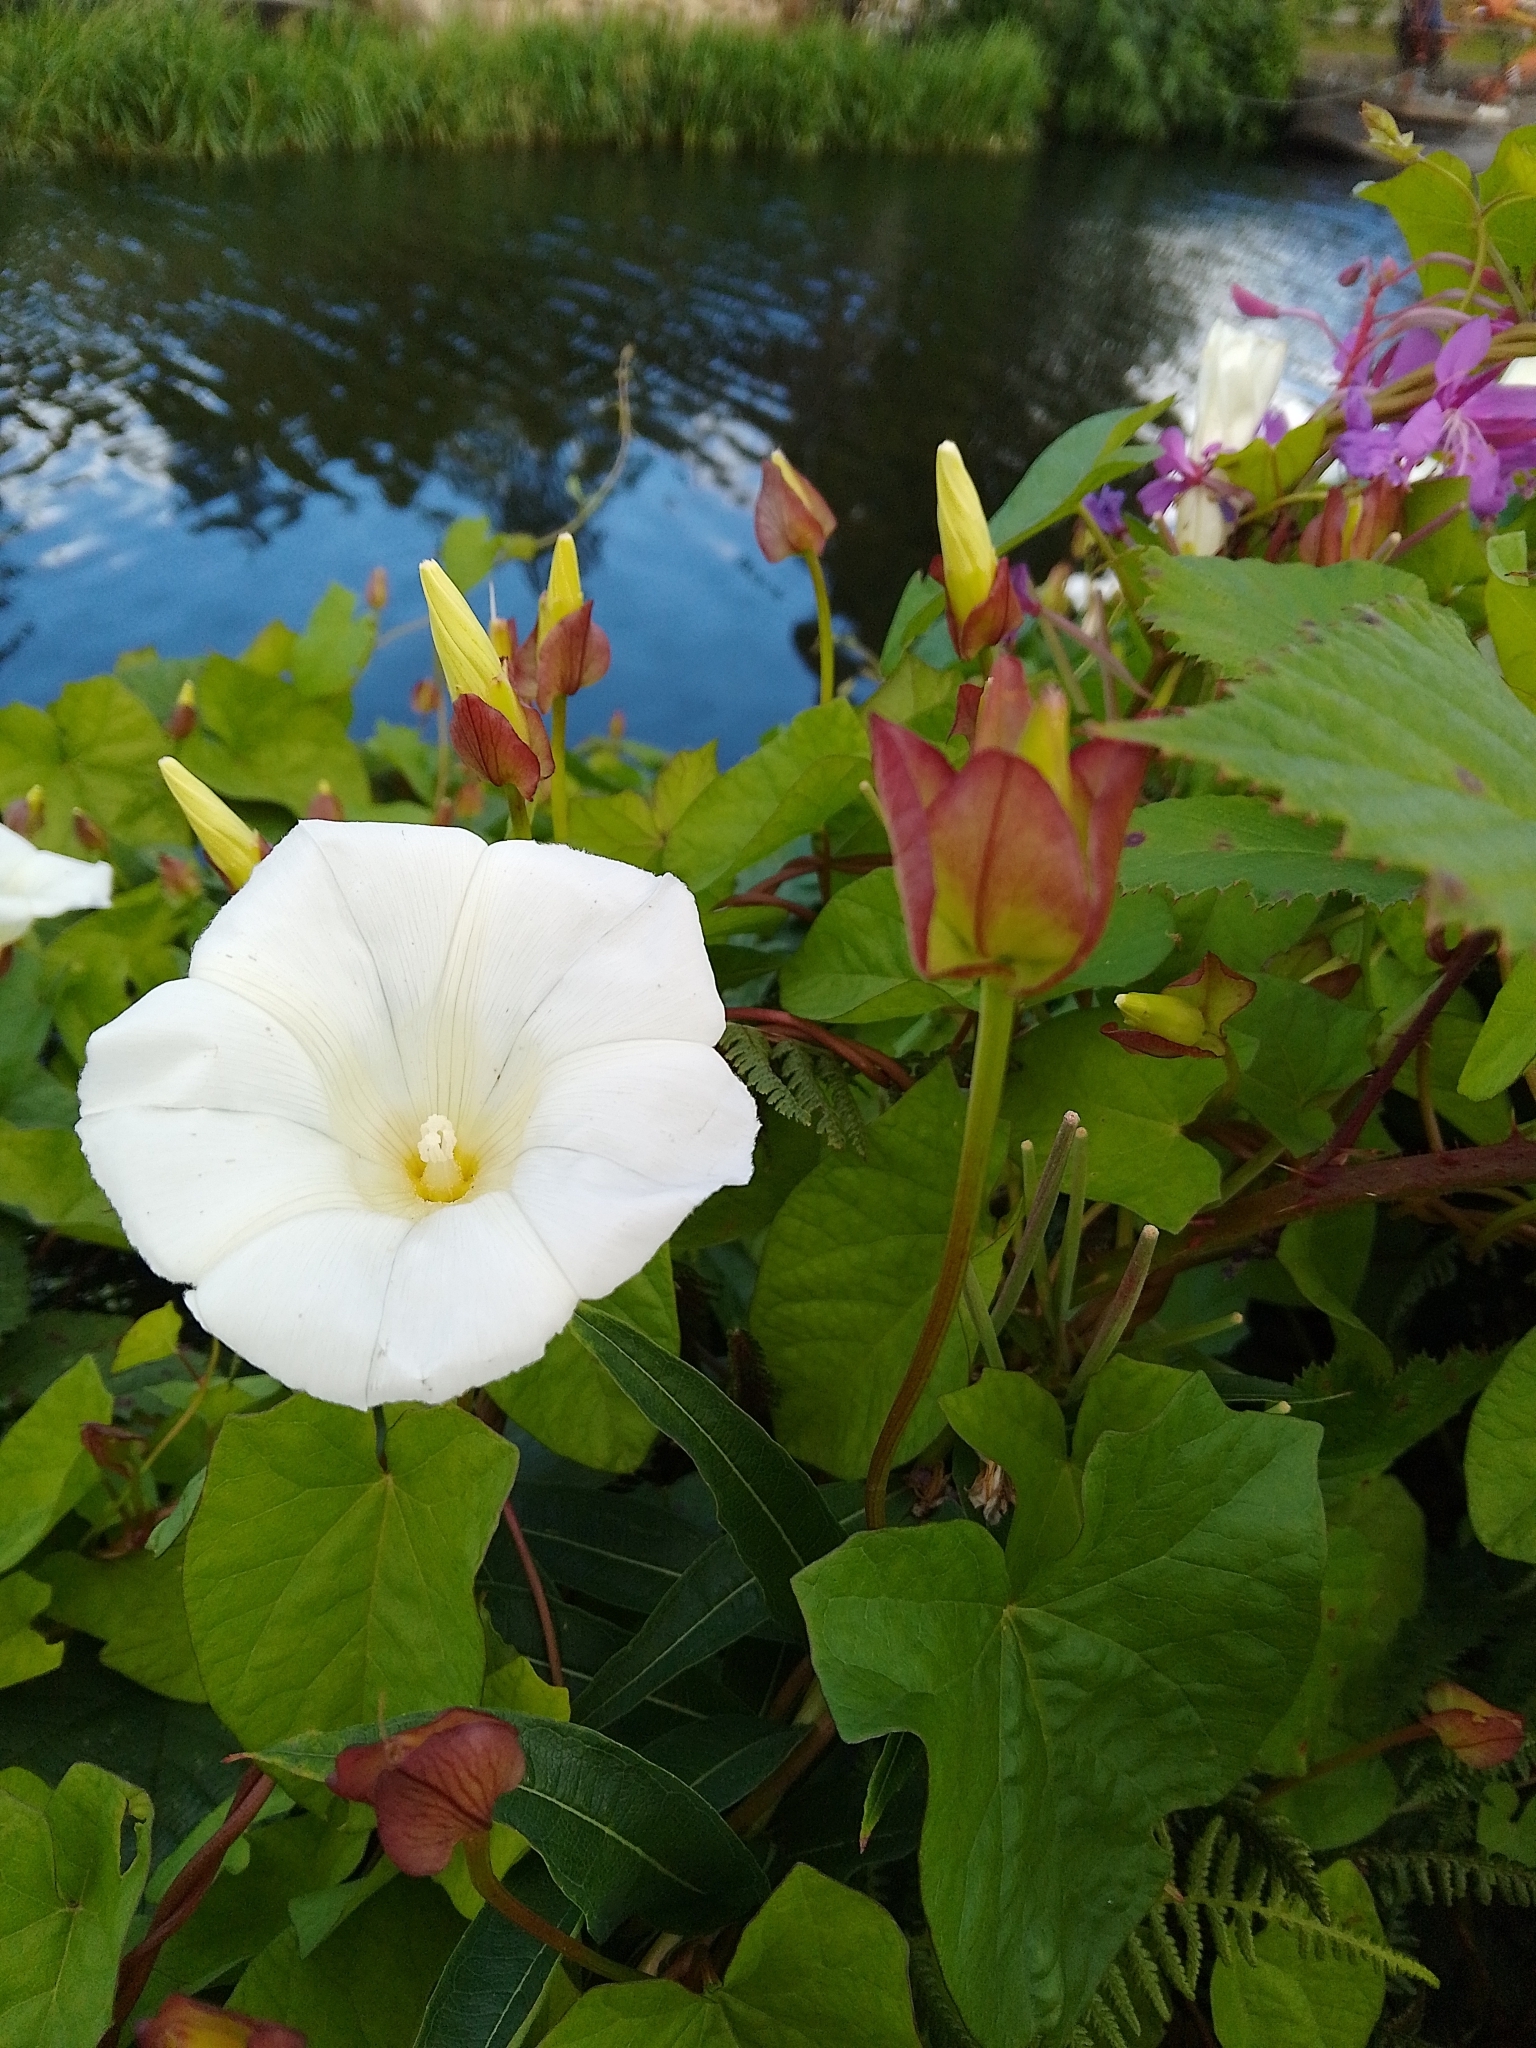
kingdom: Plantae
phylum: Tracheophyta
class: Magnoliopsida
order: Solanales
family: Convolvulaceae
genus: Calystegia
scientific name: Calystegia sepium
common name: Hedge bindweed
